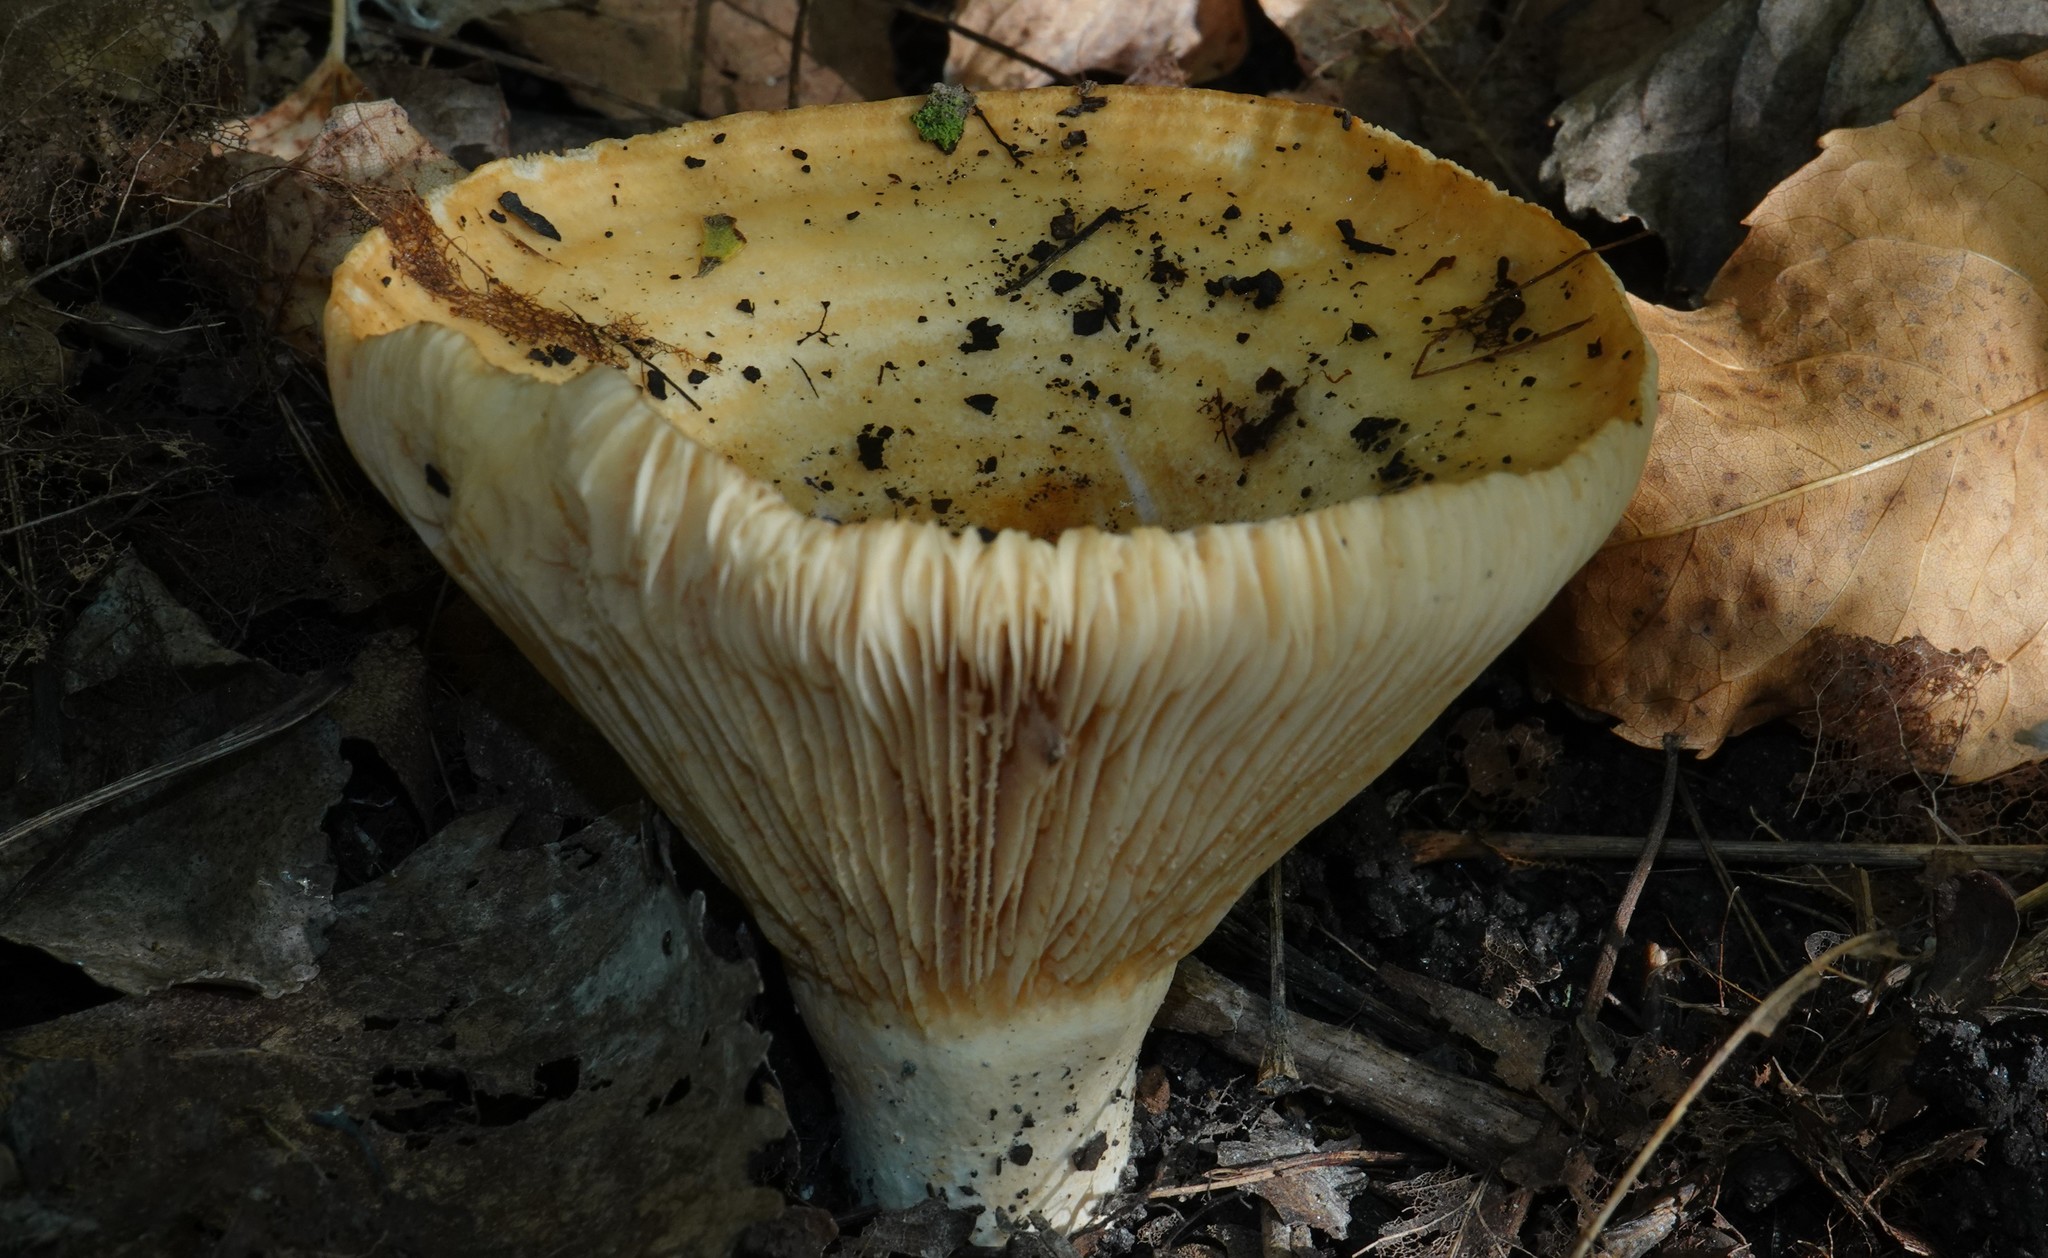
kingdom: Fungi
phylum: Basidiomycota
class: Agaricomycetes
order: Russulales
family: Russulaceae
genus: Lactarius
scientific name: Lactarius psammicola
